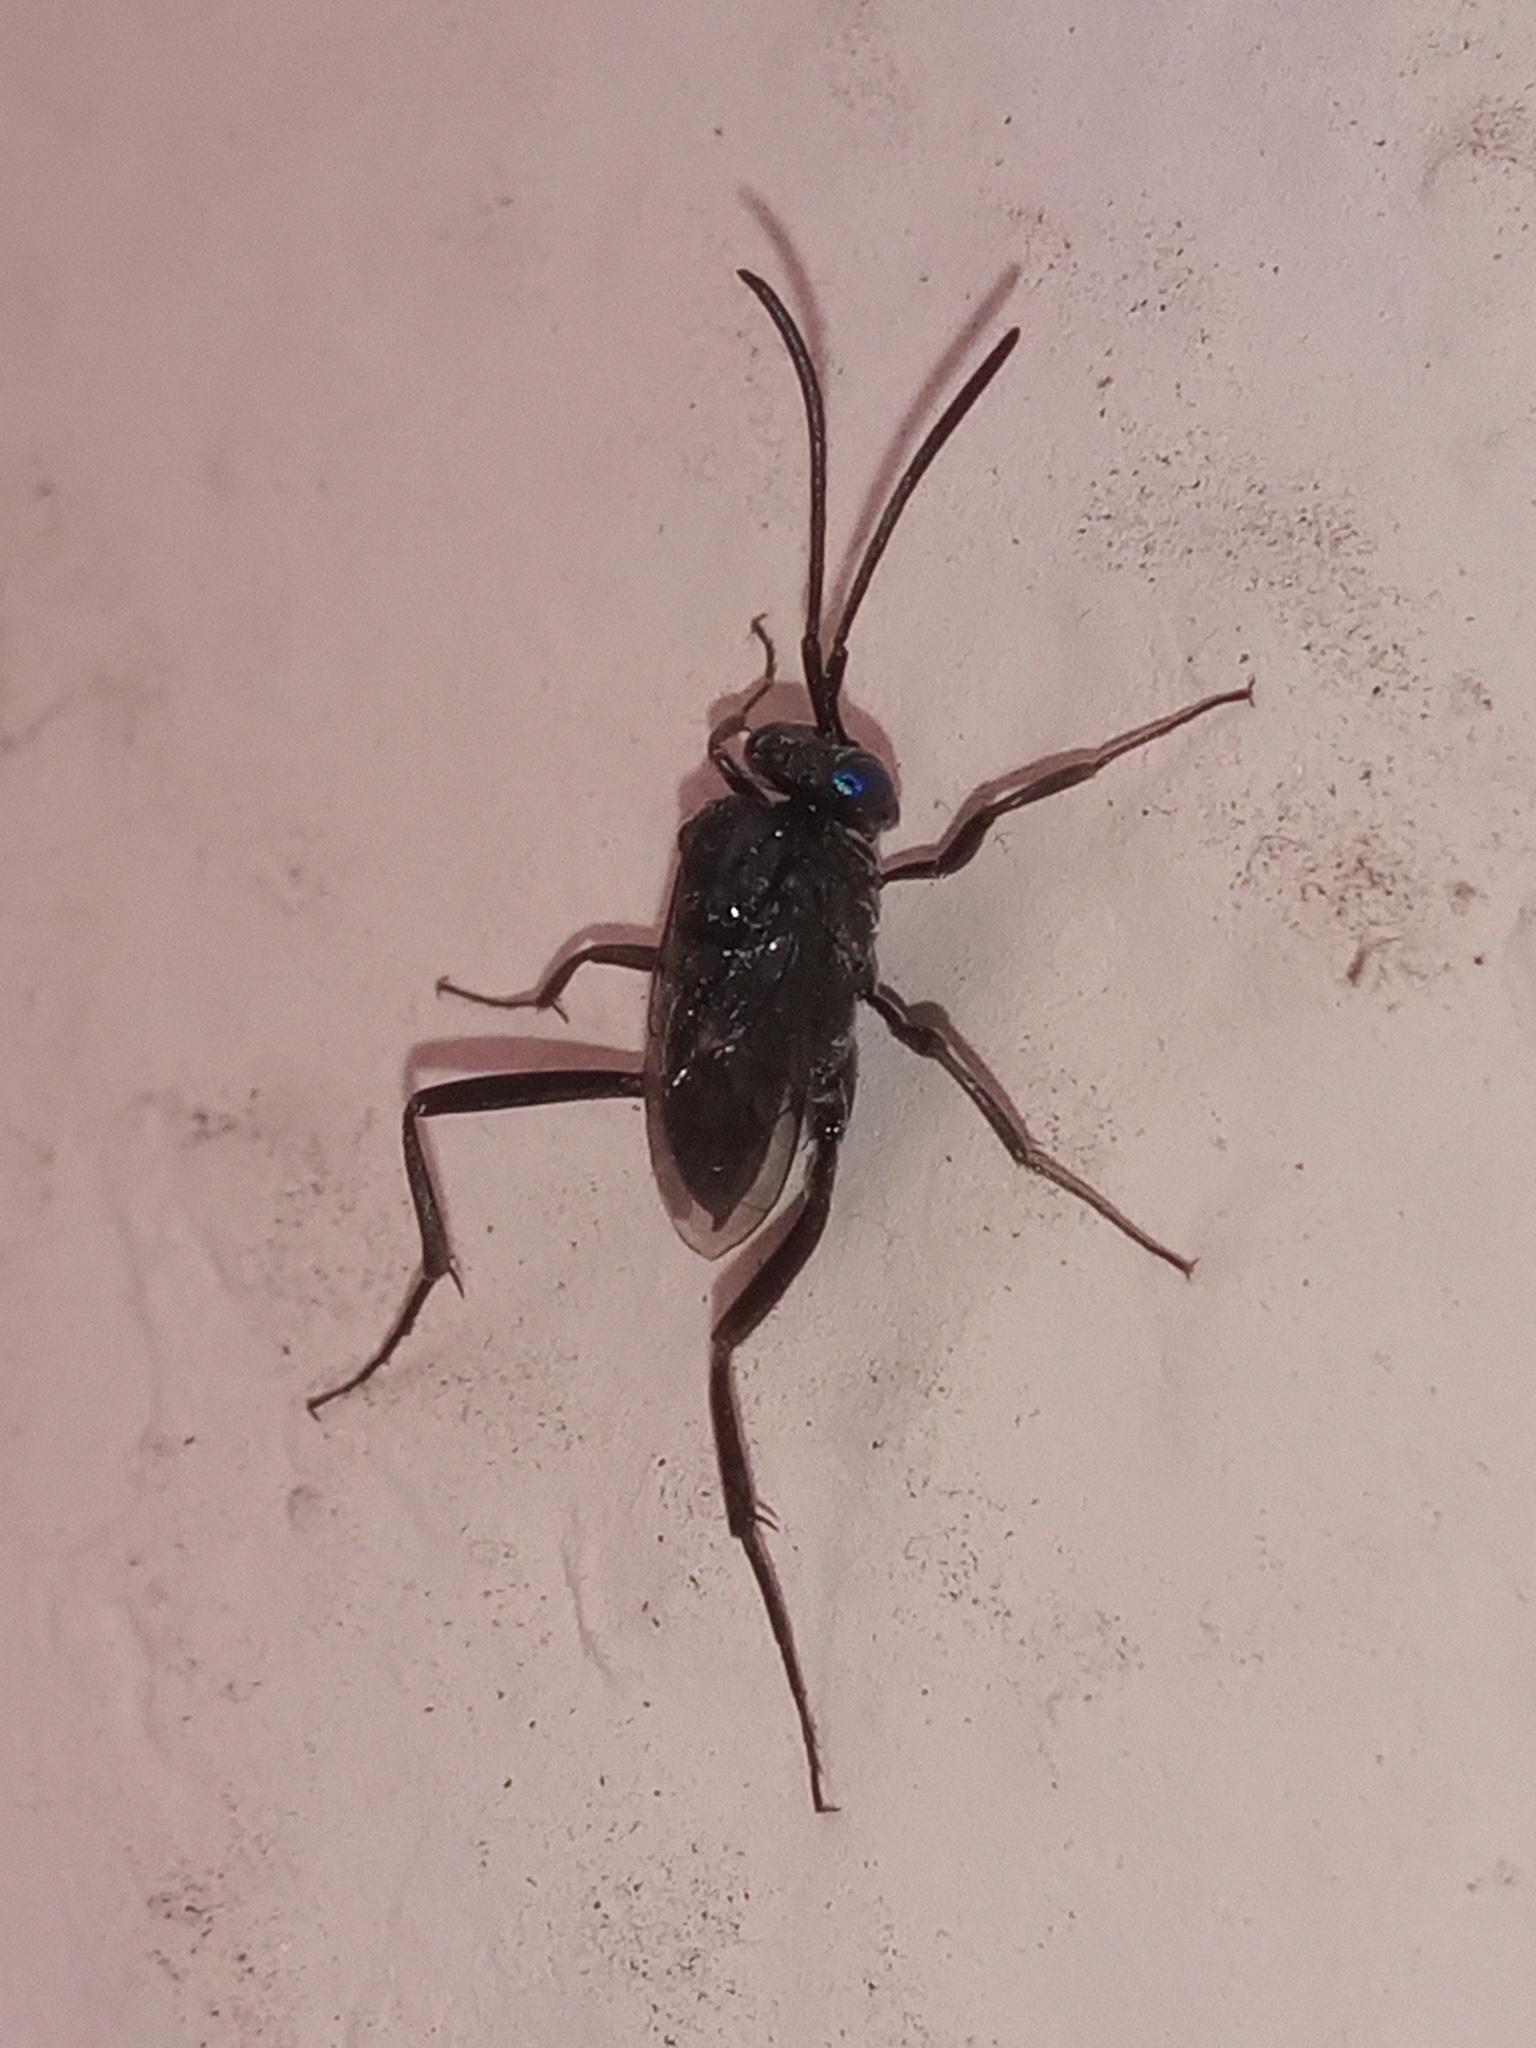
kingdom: Animalia
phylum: Arthropoda
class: Insecta
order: Hymenoptera
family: Evaniidae
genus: Evania
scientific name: Evania appendigaster
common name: Ensign wasp
